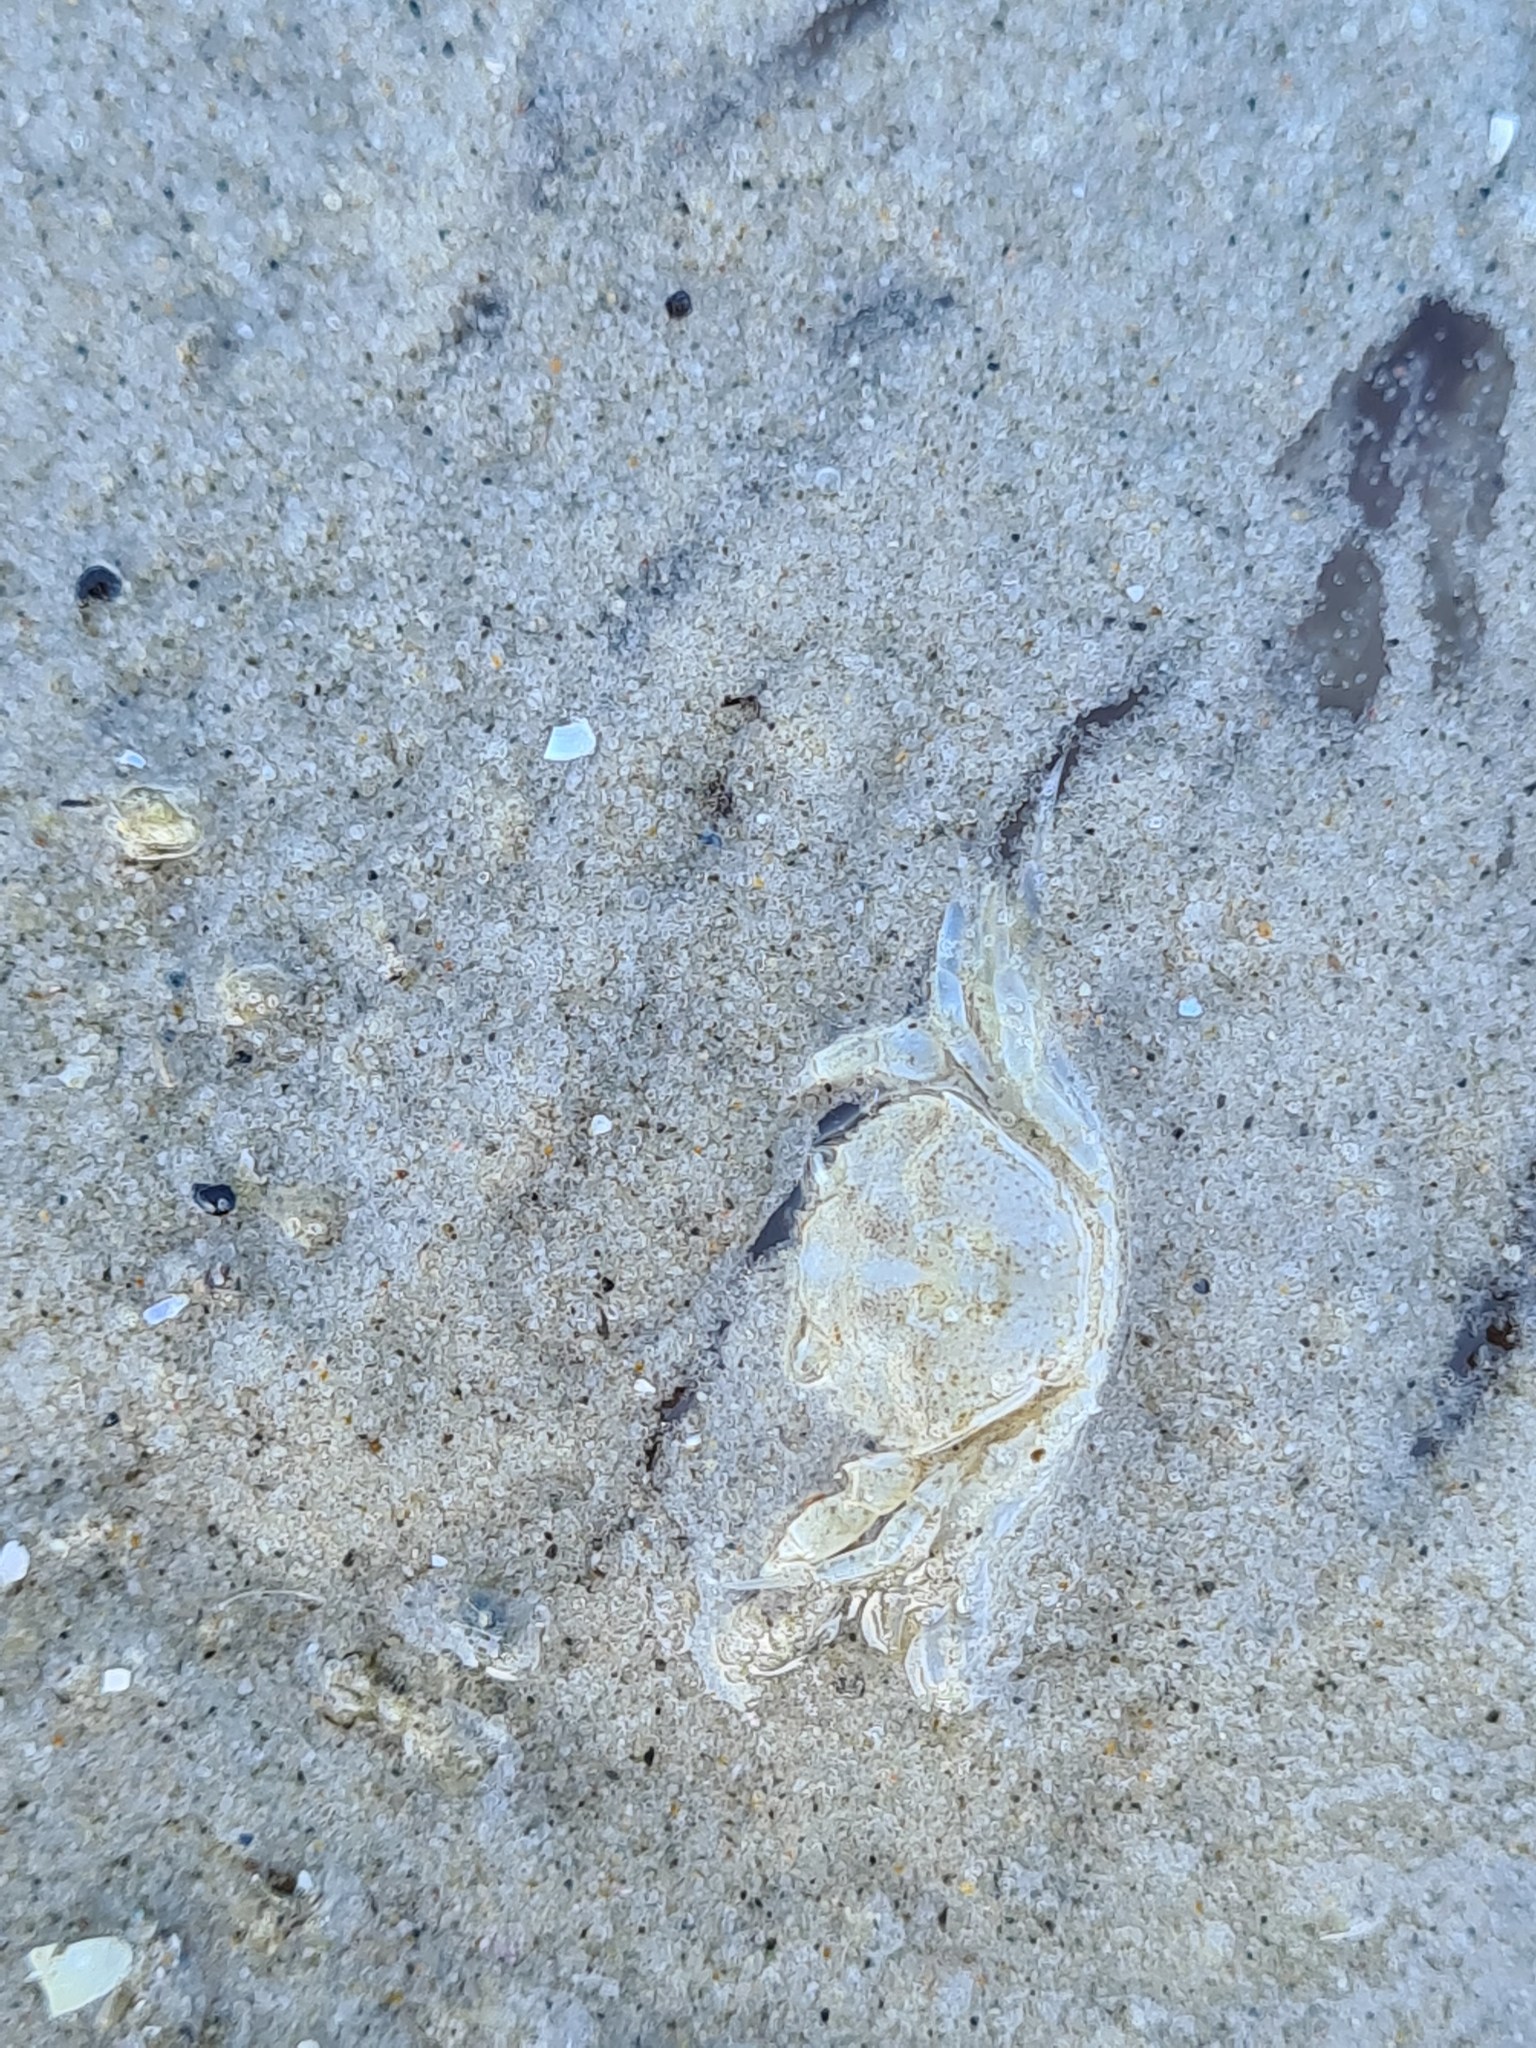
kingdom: Animalia
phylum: Arthropoda
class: Malacostraca
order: Decapoda
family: Carcinidae
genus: Carcinus
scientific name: Carcinus maenas
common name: European green crab
